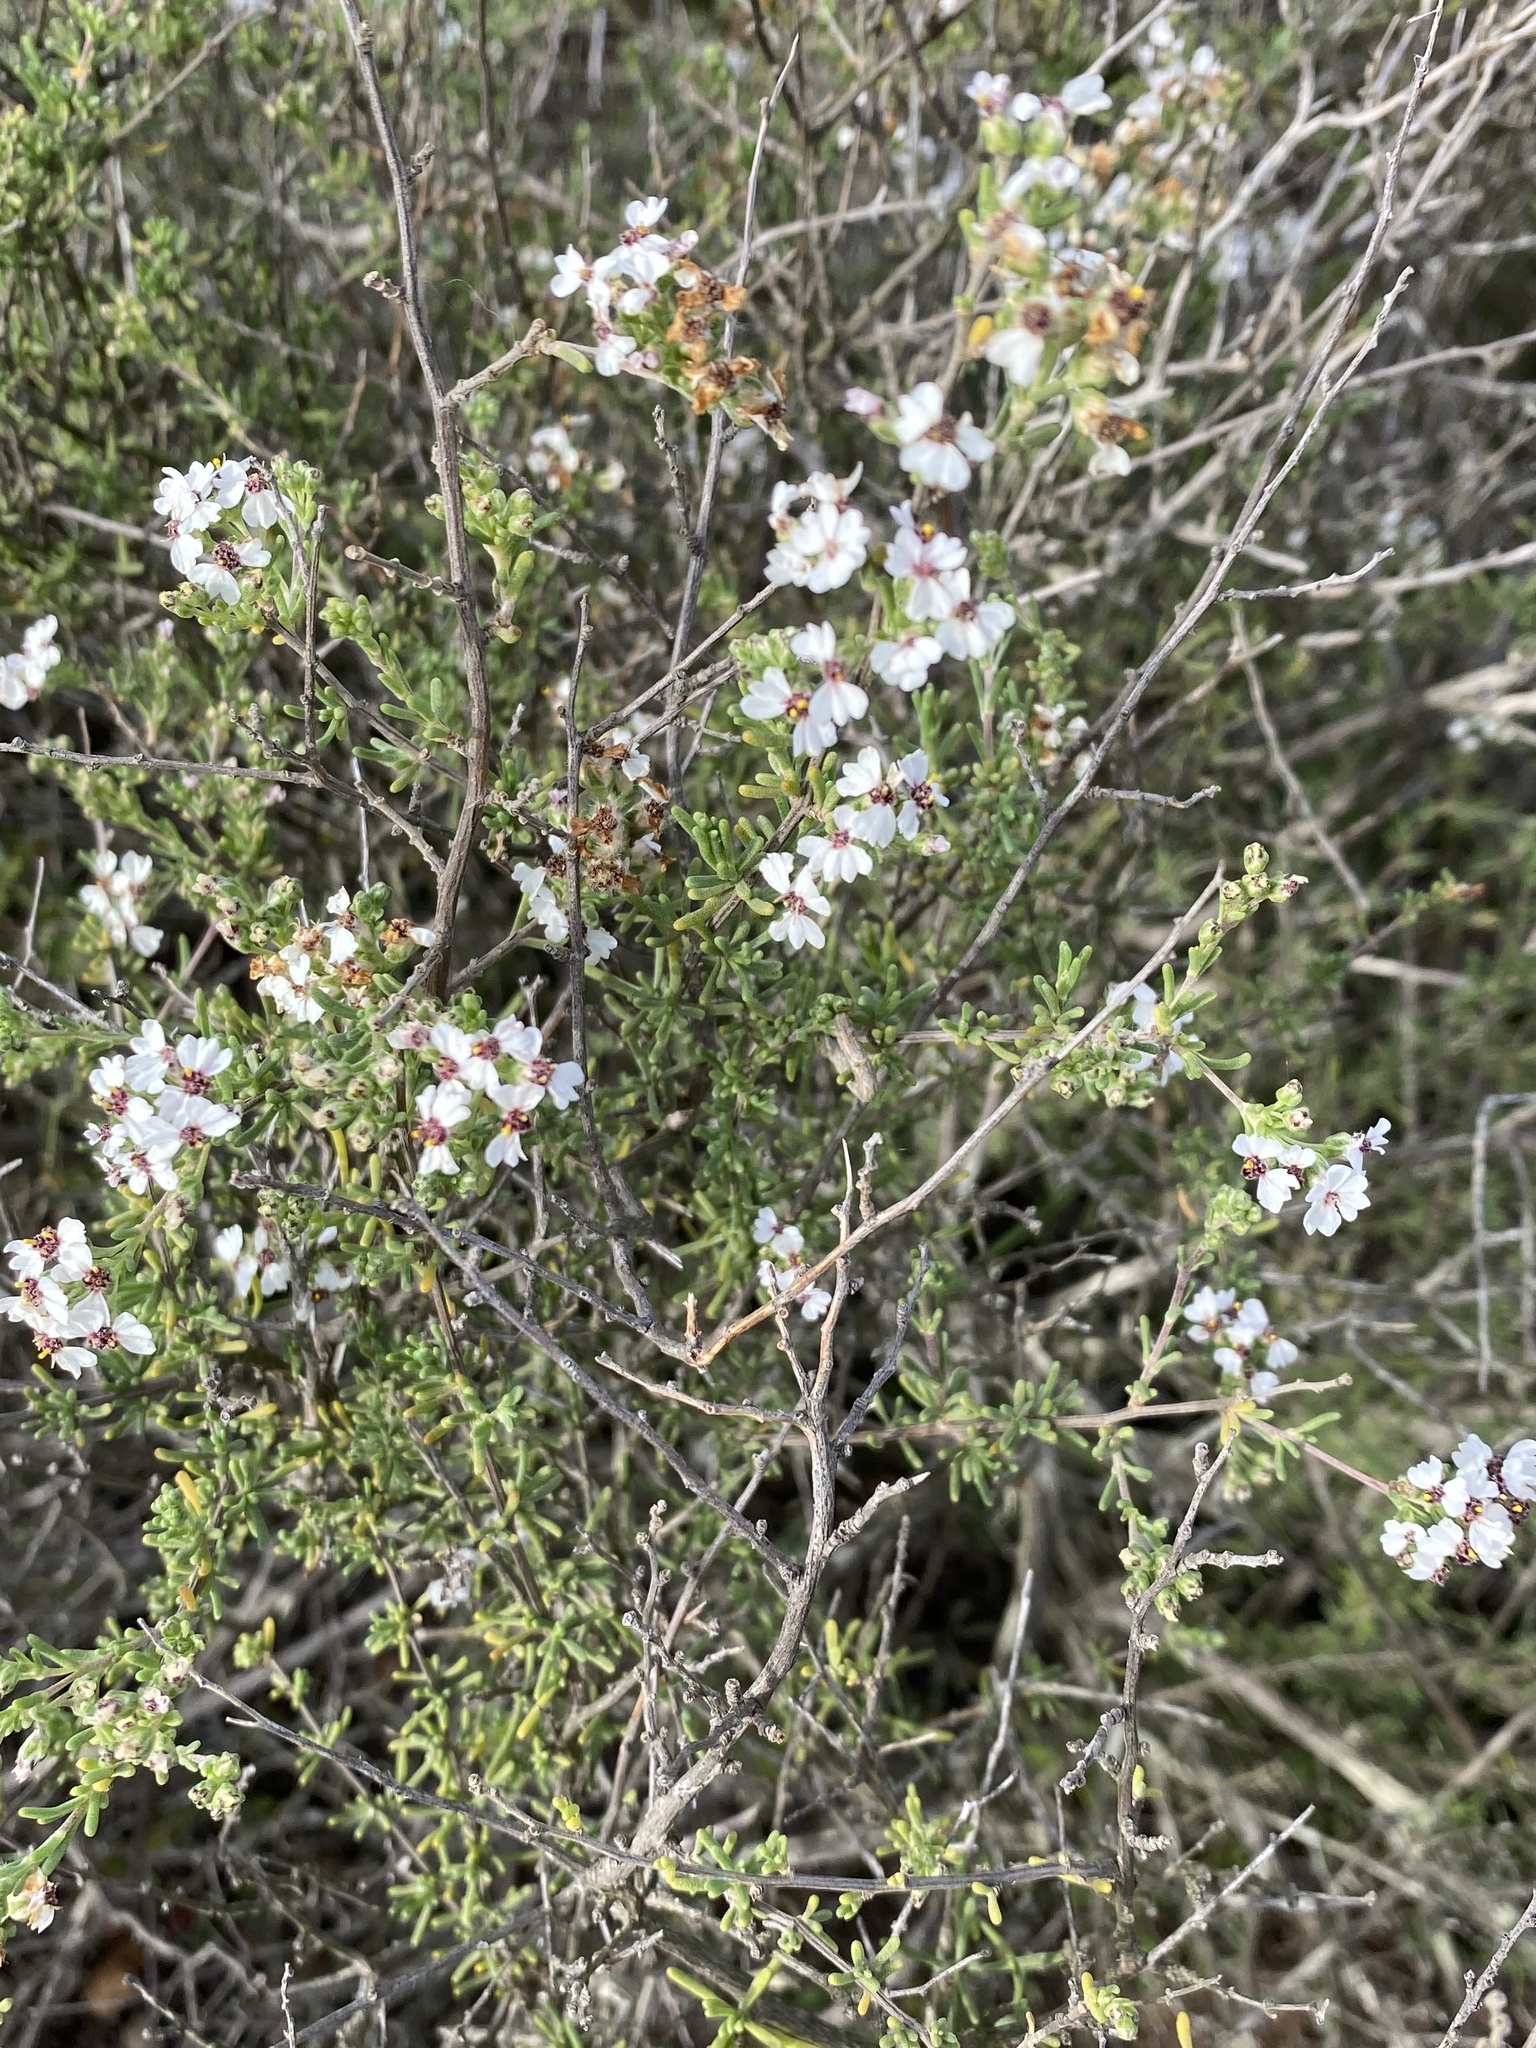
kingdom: Plantae
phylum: Tracheophyta
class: Magnoliopsida
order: Asterales
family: Asteraceae
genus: Eriocephalus
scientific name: Eriocephalus africanus
